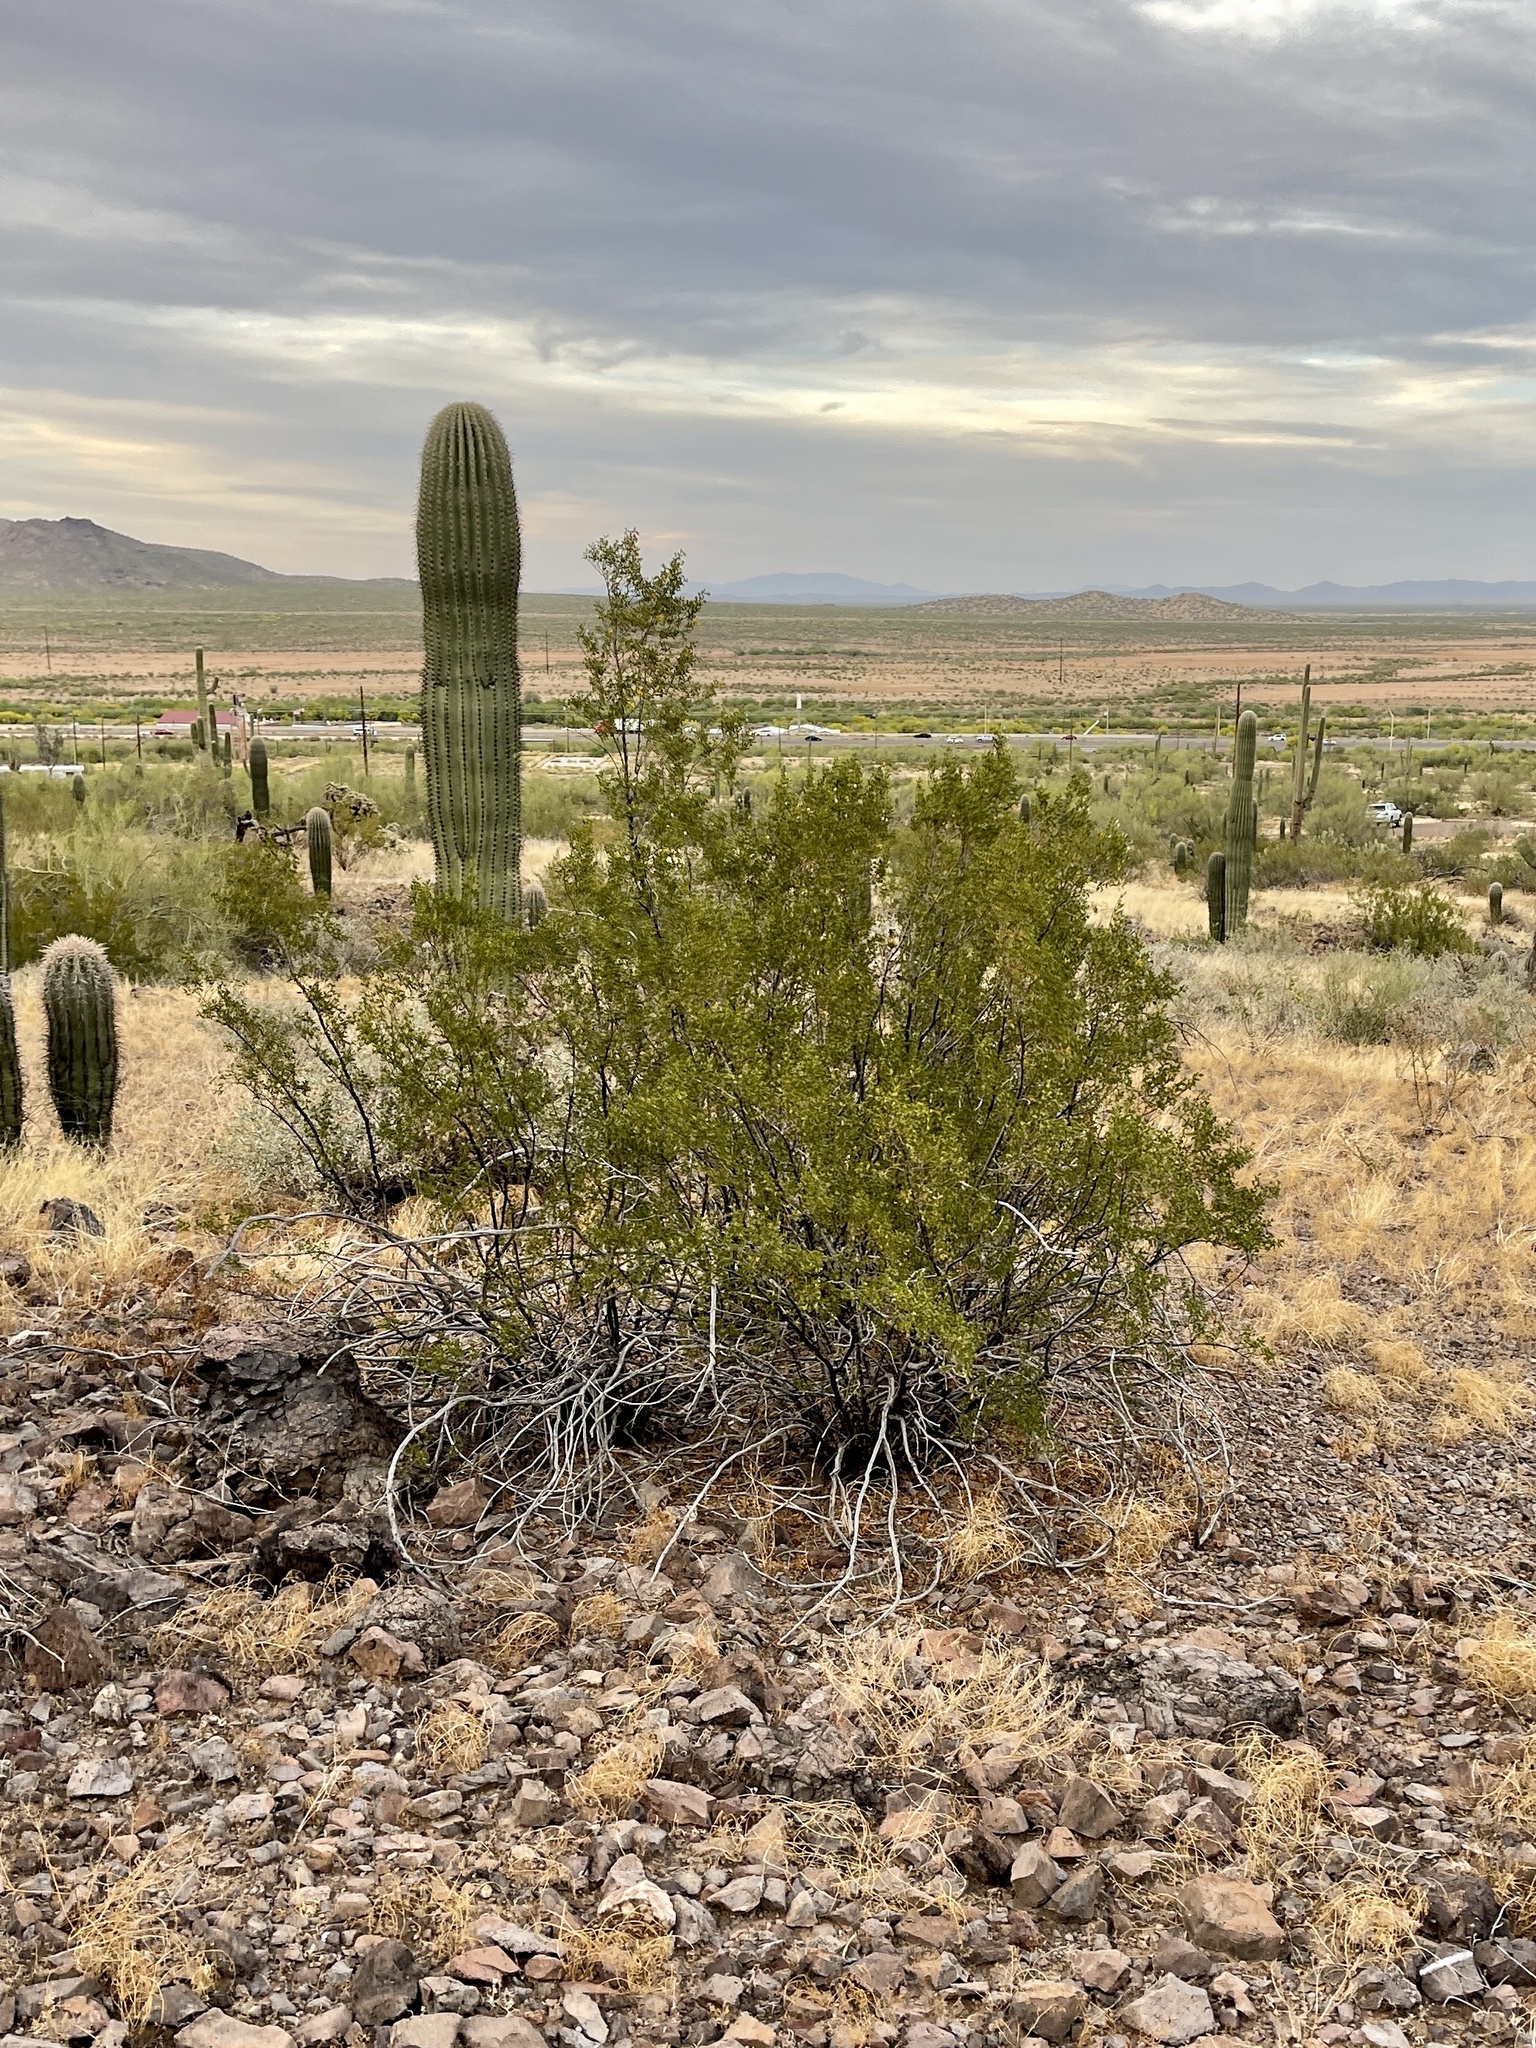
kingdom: Plantae
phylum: Tracheophyta
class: Magnoliopsida
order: Zygophyllales
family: Zygophyllaceae
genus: Larrea
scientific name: Larrea tridentata
